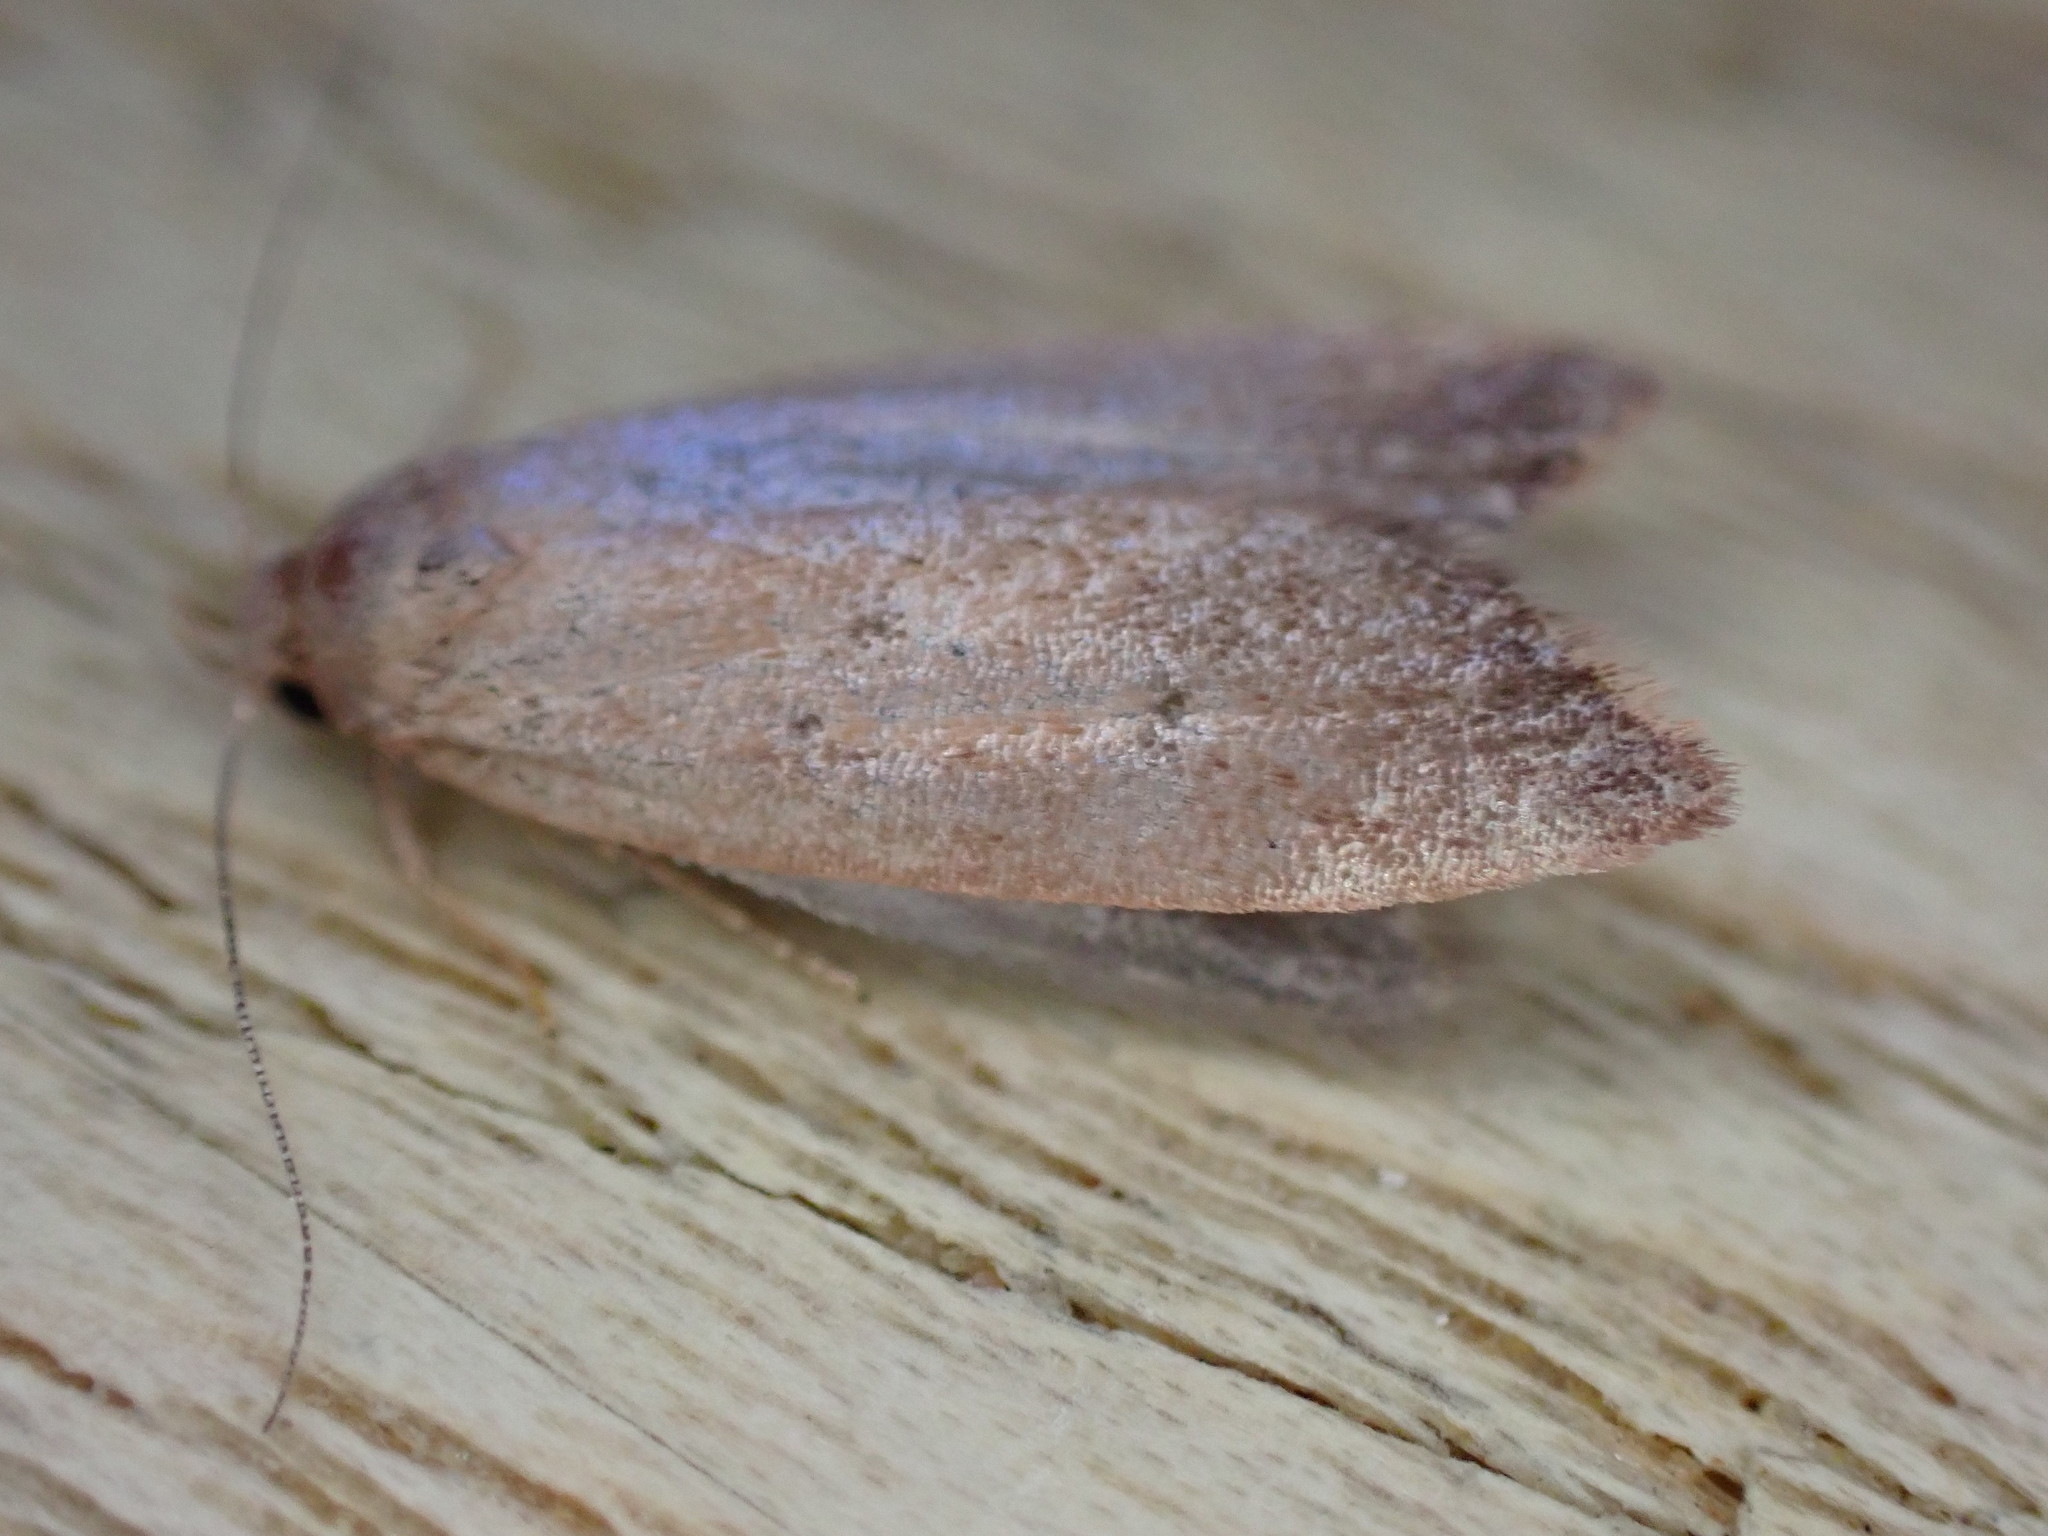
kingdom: Animalia
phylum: Arthropoda
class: Insecta
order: Lepidoptera
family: Oecophoridae
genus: Tachystola
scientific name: Tachystola acroxantha
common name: Ruddy streak
